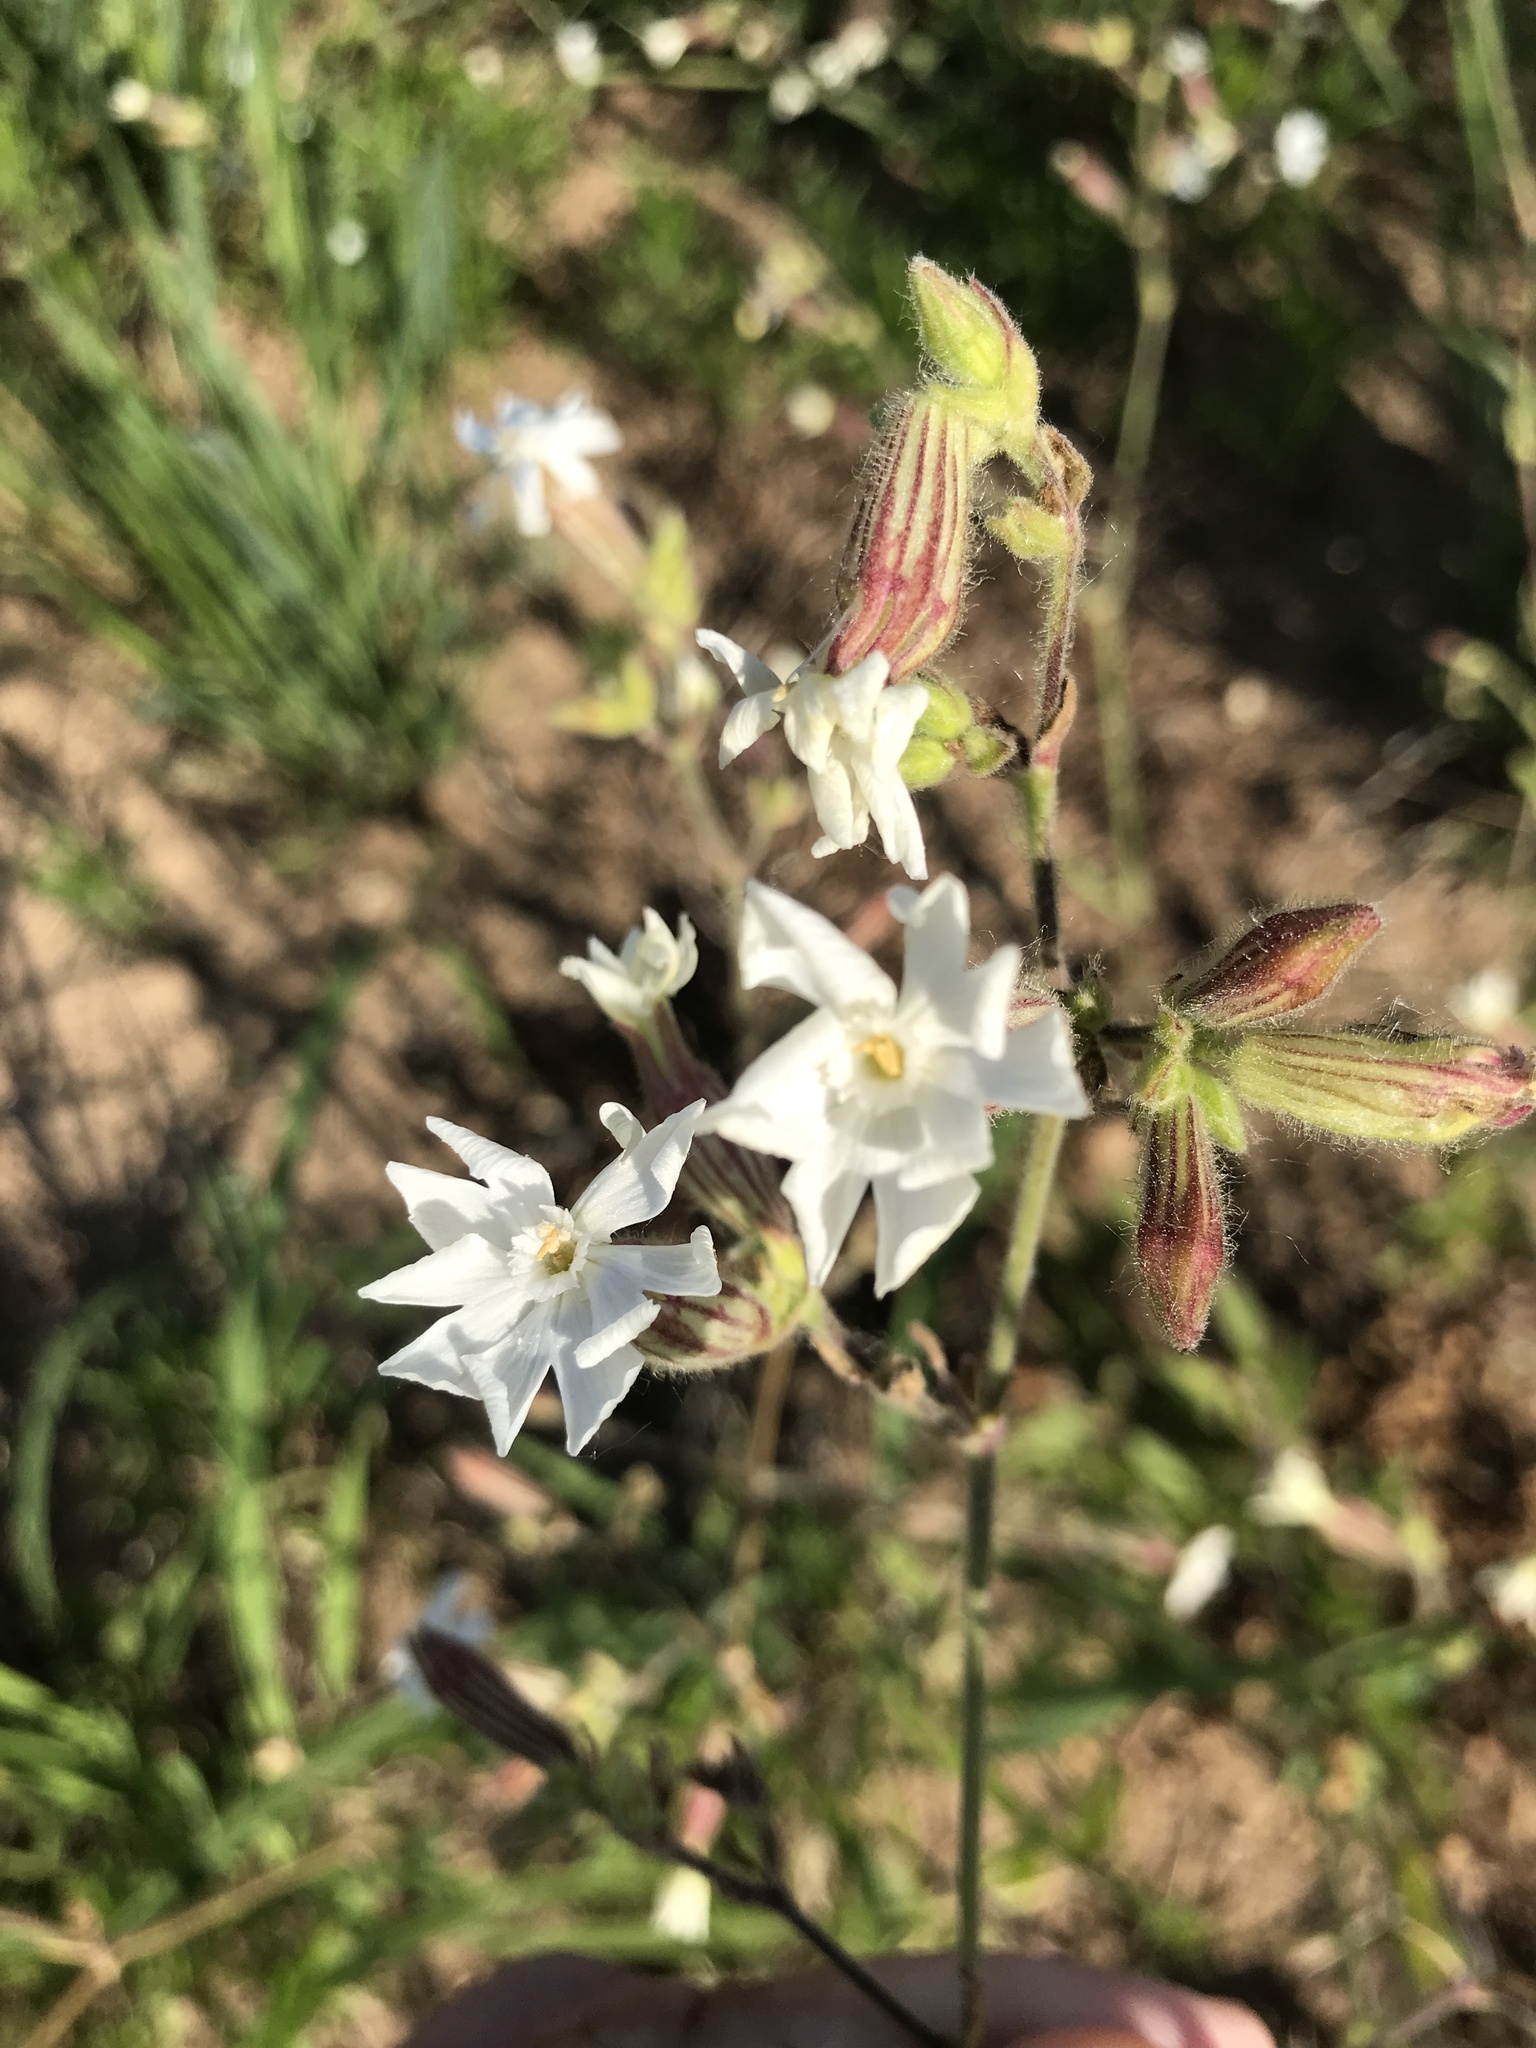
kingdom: Plantae
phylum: Tracheophyta
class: Magnoliopsida
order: Caryophyllales
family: Caryophyllaceae
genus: Silene
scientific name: Silene latifolia
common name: White campion
